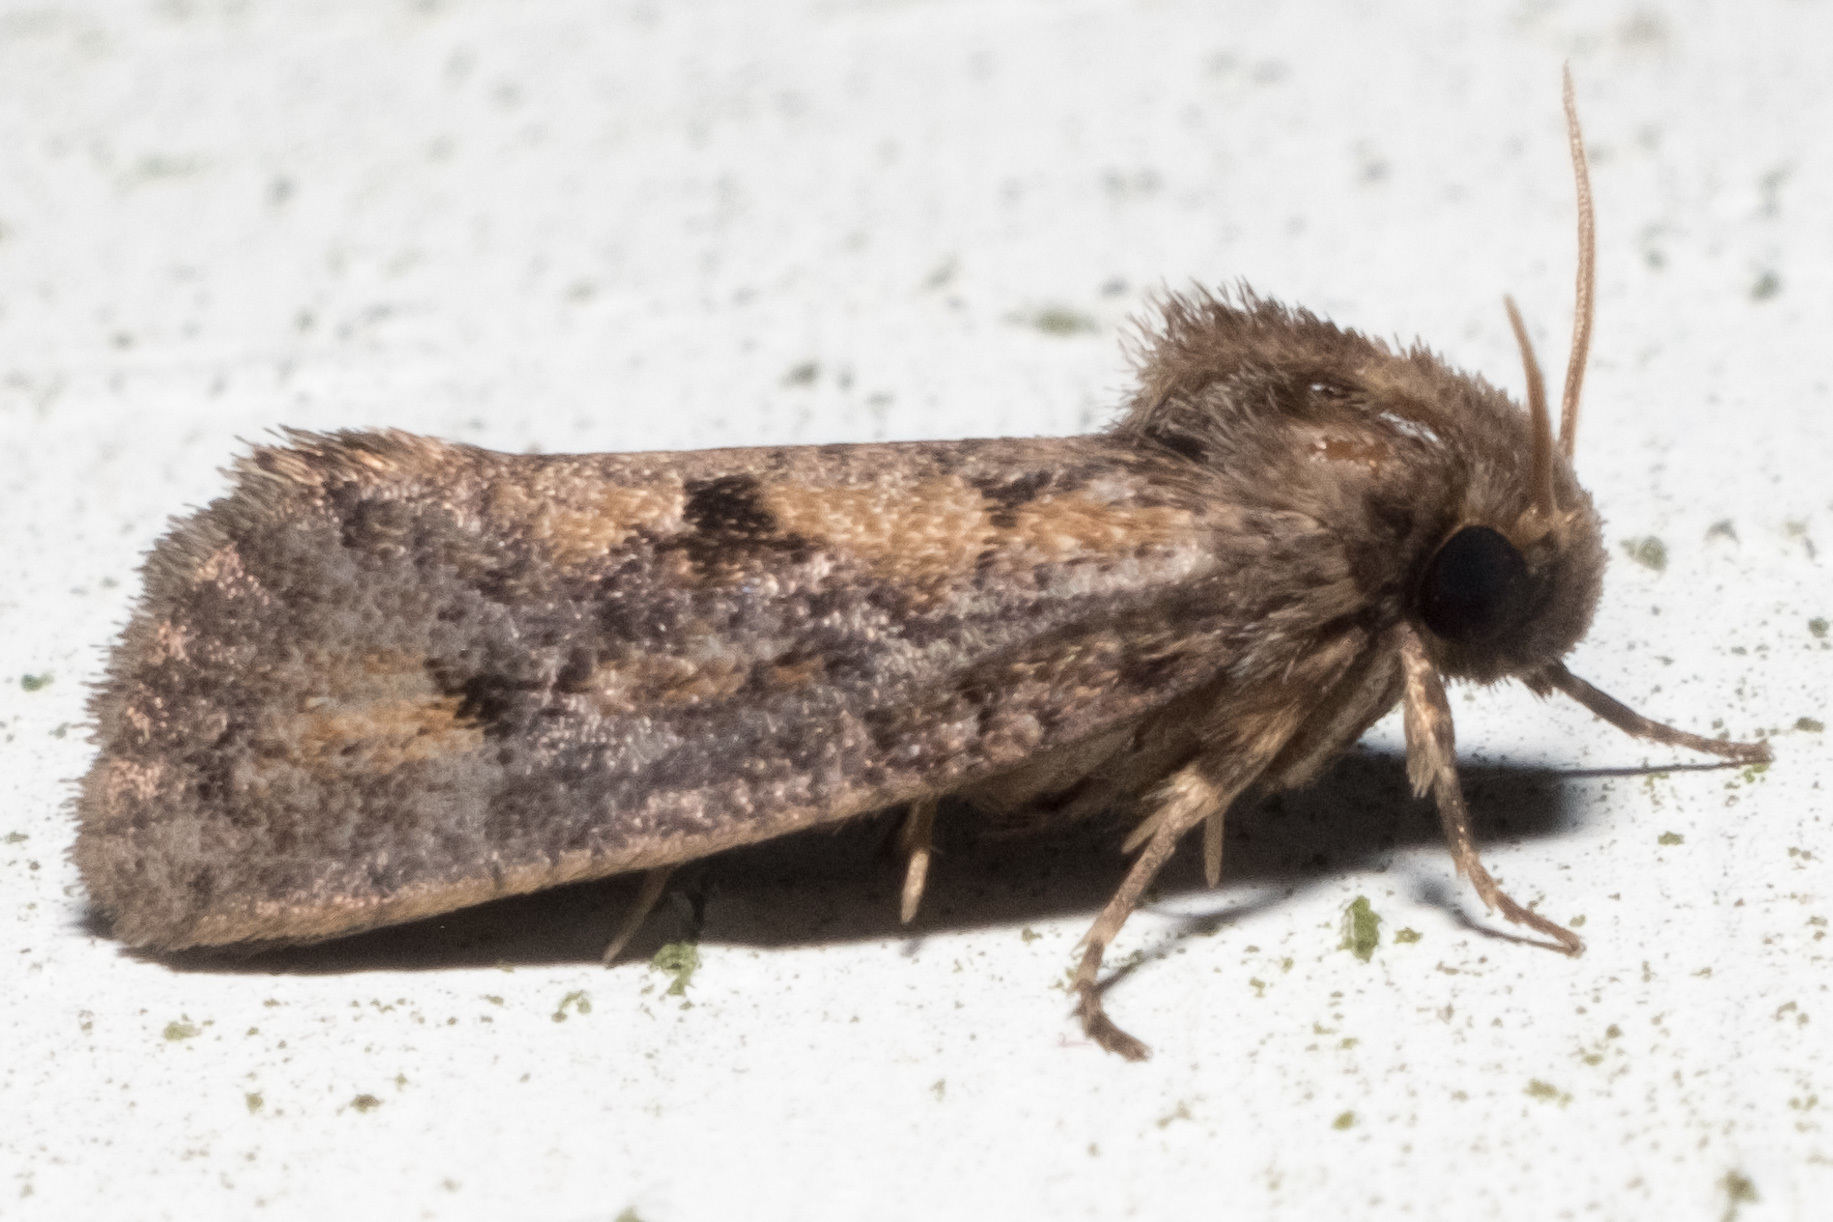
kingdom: Animalia
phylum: Arthropoda
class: Insecta
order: Lepidoptera
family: Tineidae
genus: Acrolophus
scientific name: Acrolophus popeanella
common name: Clemens' grass tubeworm moth
